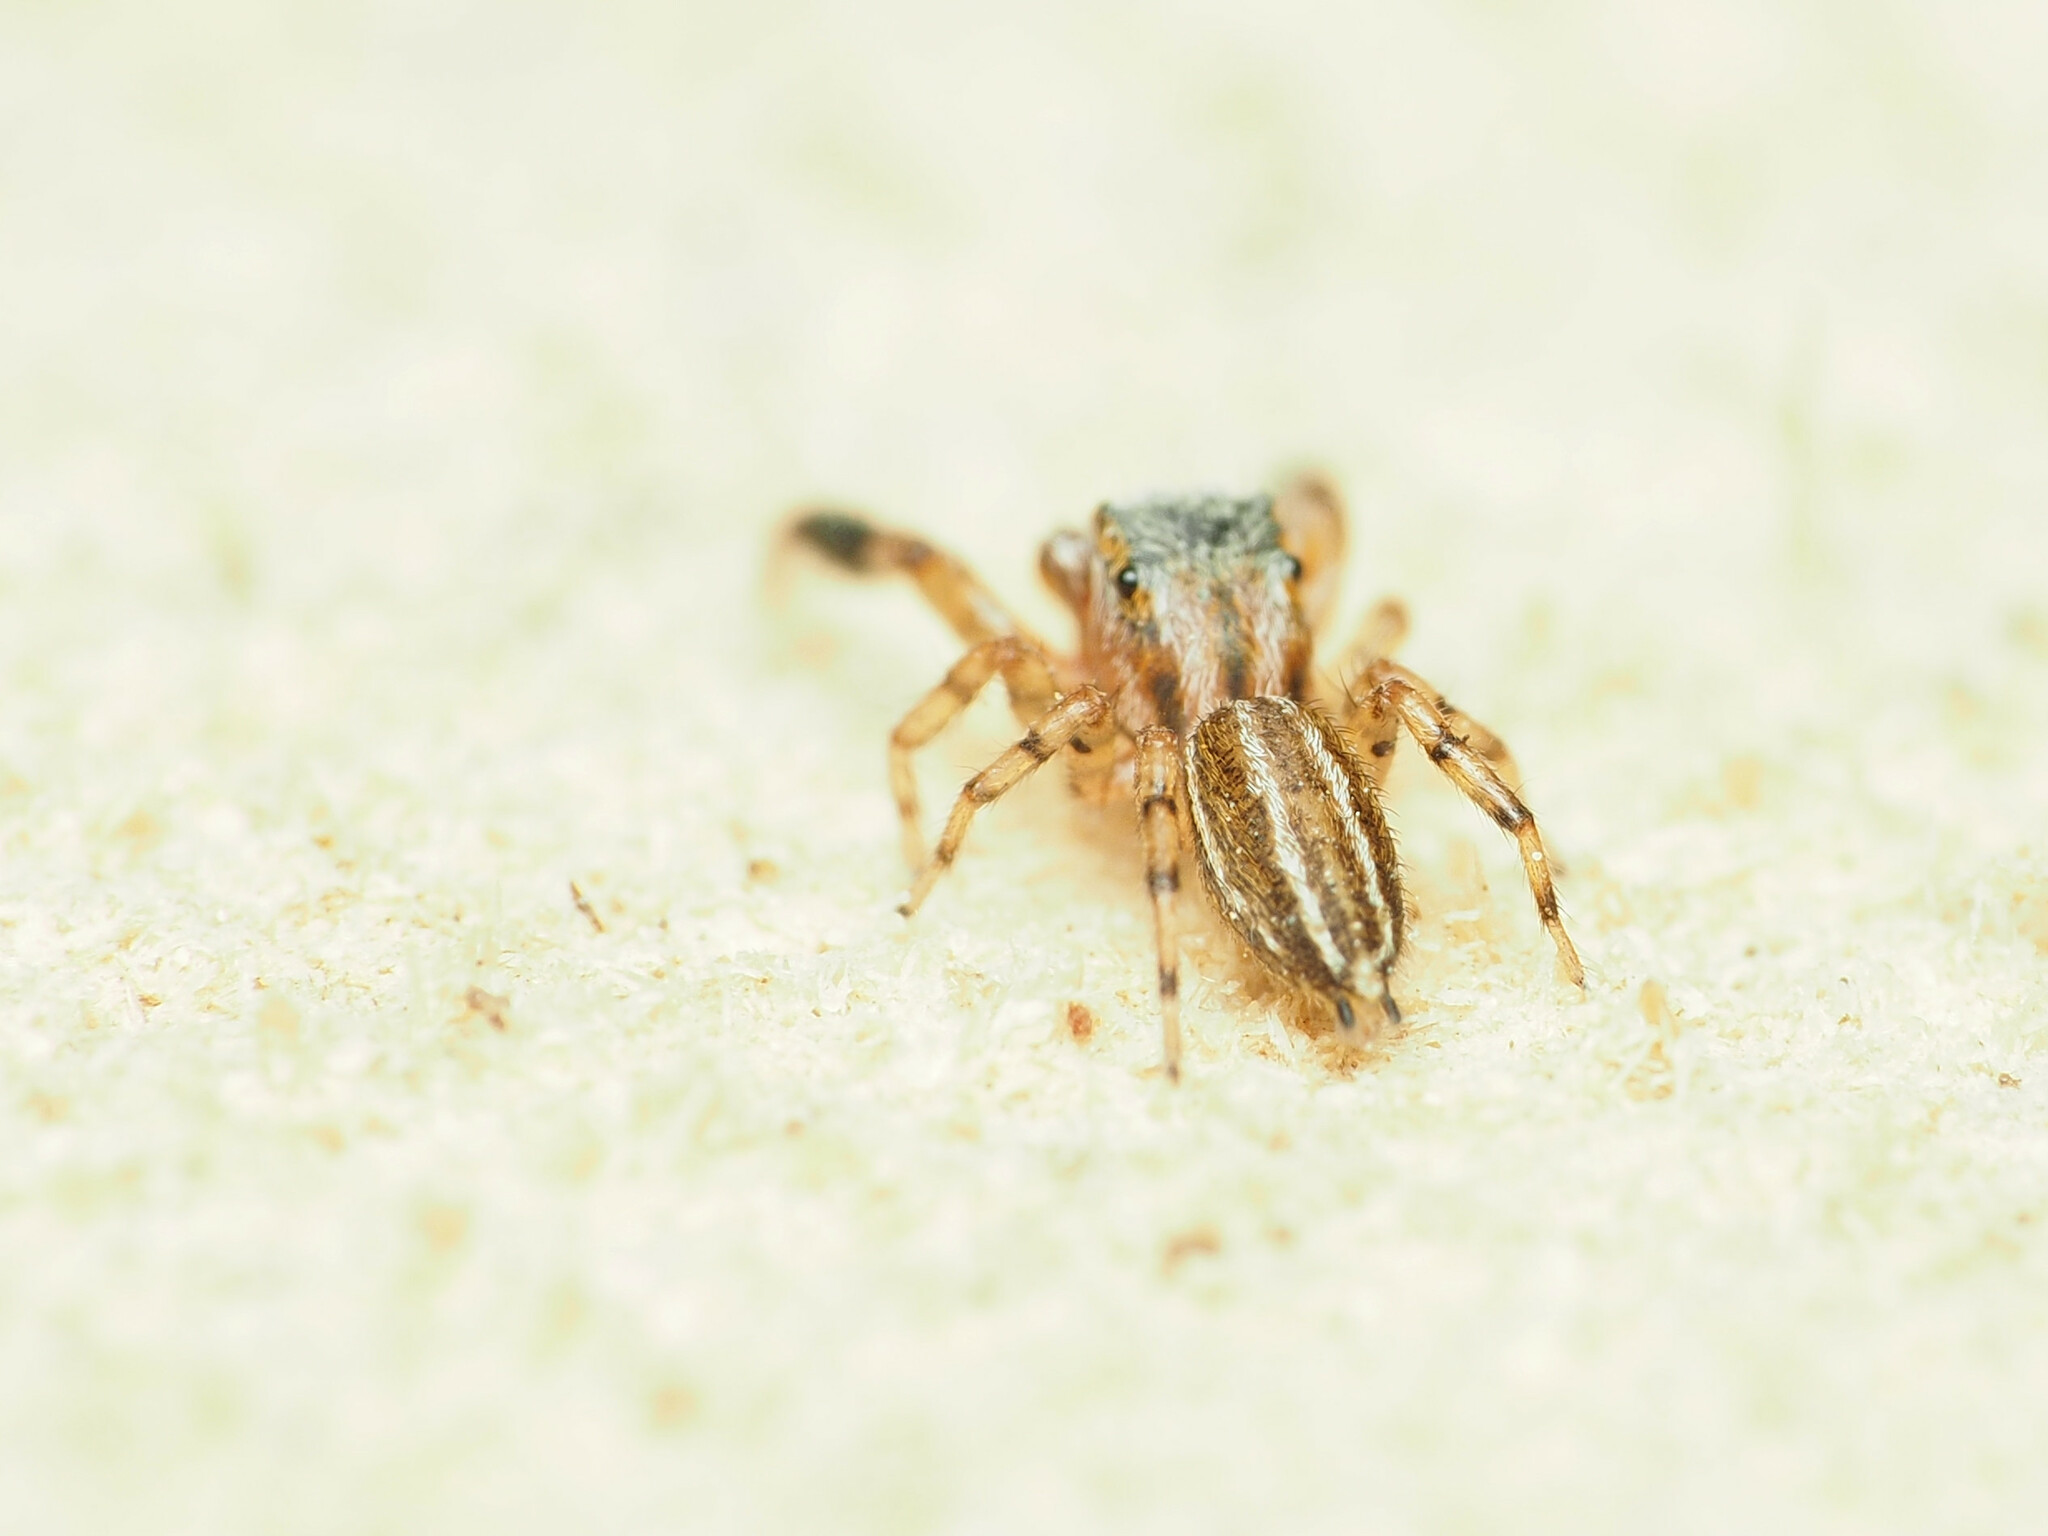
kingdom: Animalia
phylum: Arthropoda
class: Arachnida
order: Araneae
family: Salticidae
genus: Marpissa
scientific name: Marpissa lineata
